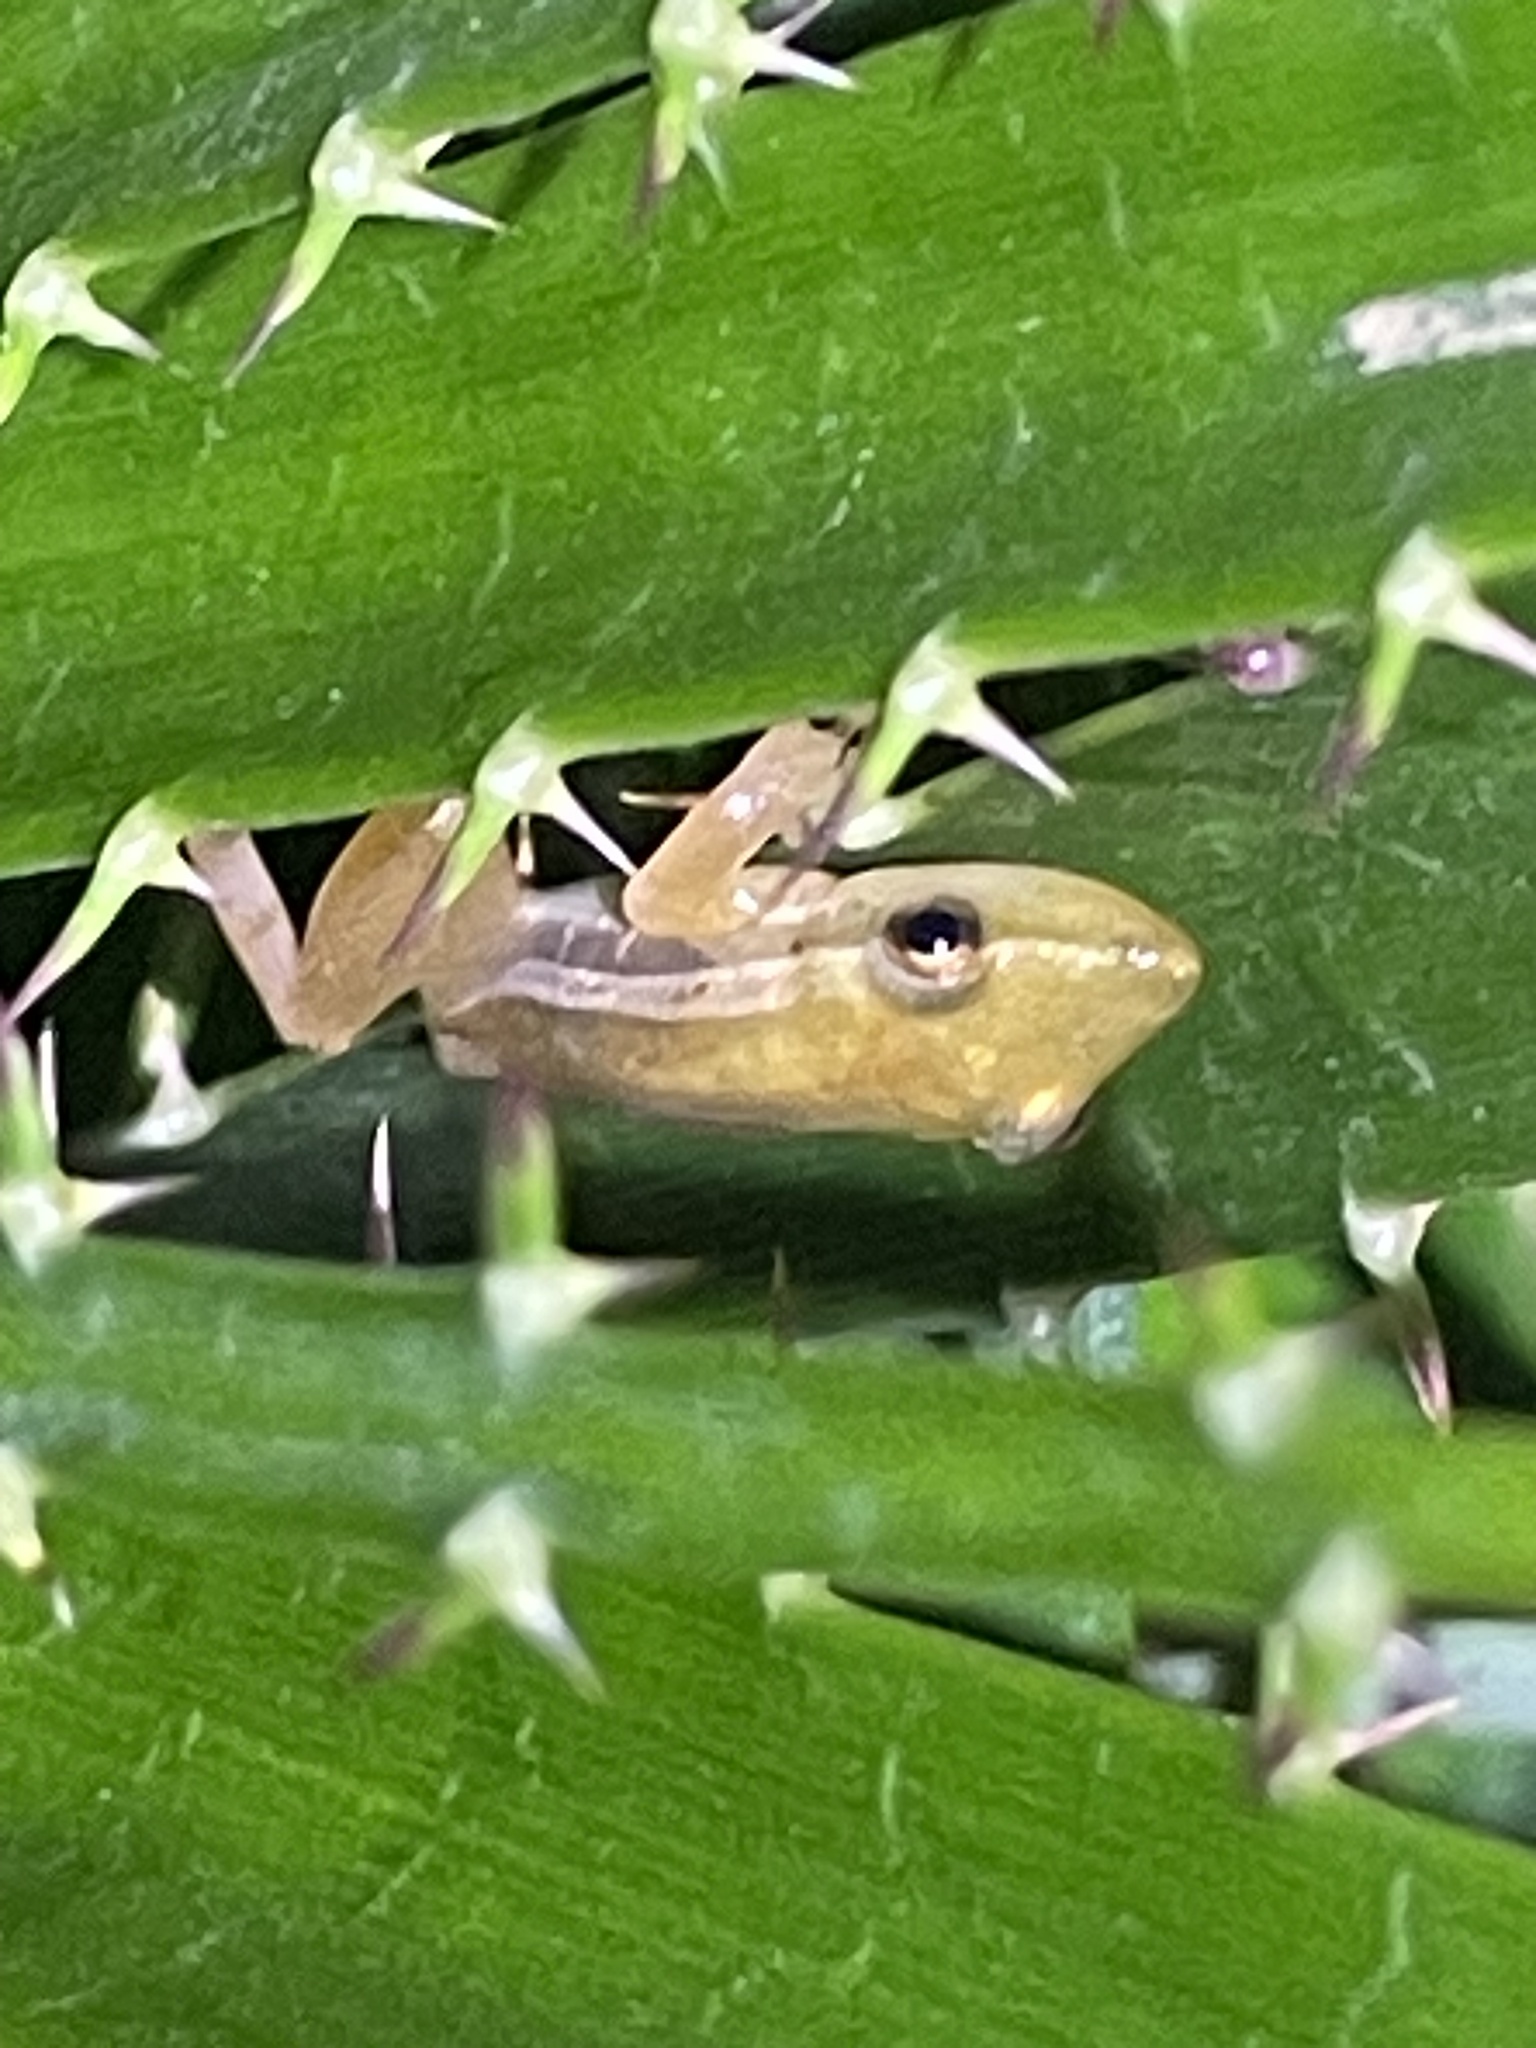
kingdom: Animalia
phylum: Chordata
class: Amphibia
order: Anura
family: Hylidae
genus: Scinax
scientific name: Scinax squalirostris
